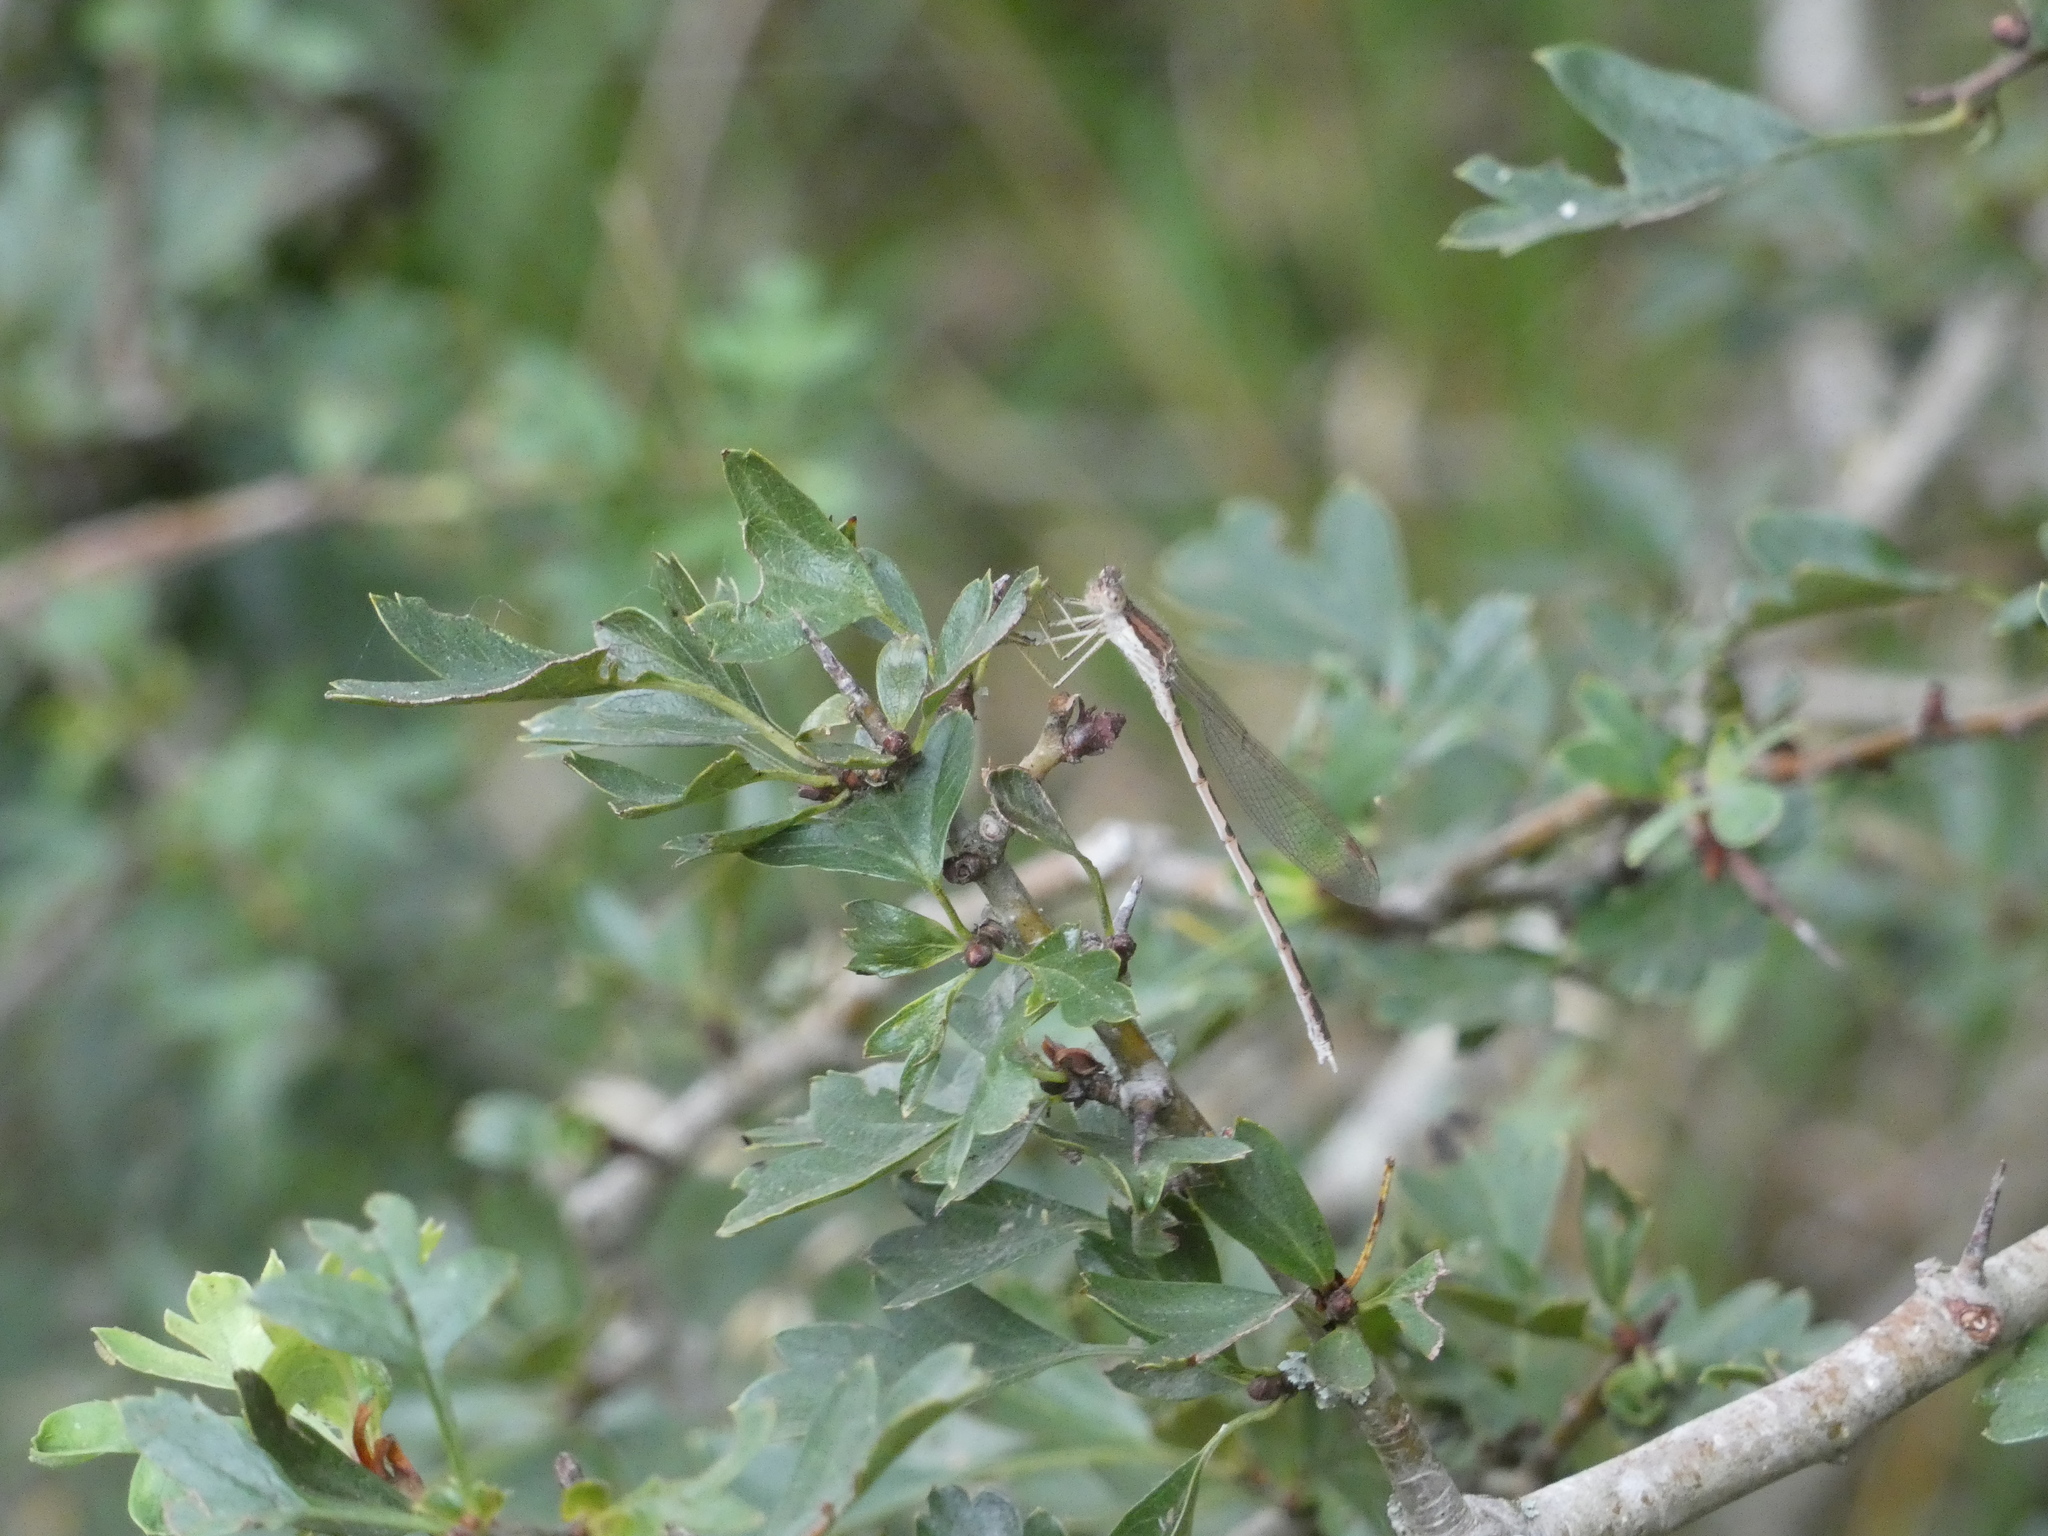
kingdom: Animalia
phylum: Arthropoda
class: Insecta
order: Odonata
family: Lestidae
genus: Sympecma
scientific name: Sympecma fusca
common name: Common winter damsel
